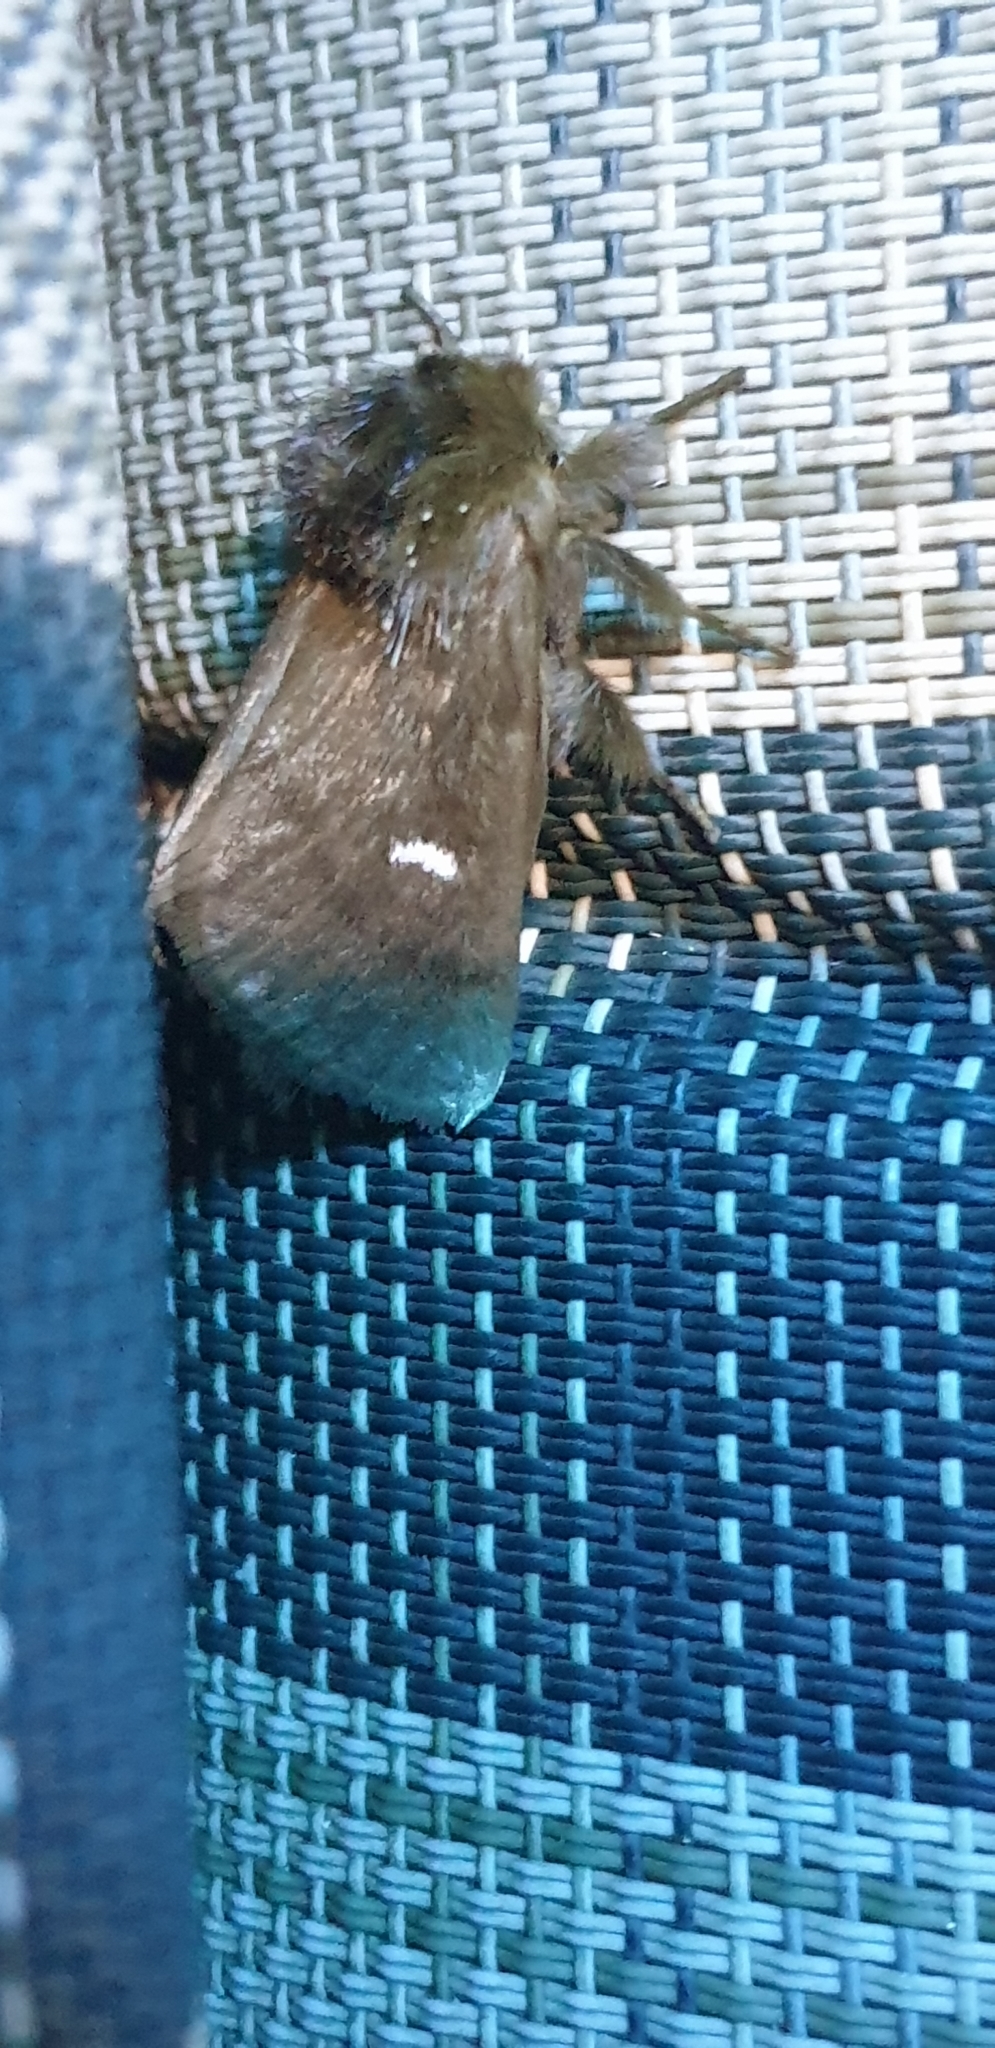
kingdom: Animalia
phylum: Arthropoda
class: Insecta
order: Lepidoptera
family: Notodontidae
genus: Ochrogaster
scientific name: Ochrogaster lunifer
